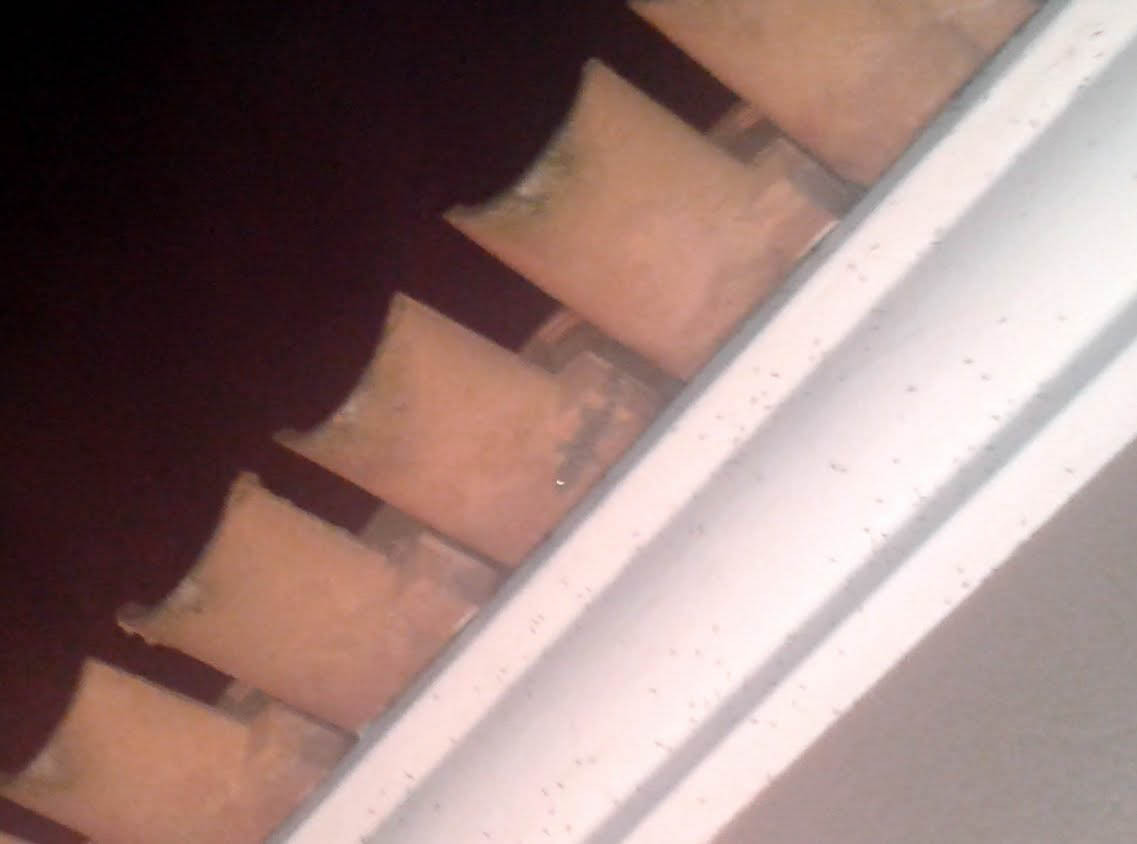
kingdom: Animalia
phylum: Chordata
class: Squamata
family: Phyllodactylidae
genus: Tarentola
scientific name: Tarentola mauritanica
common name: Moorish gecko
